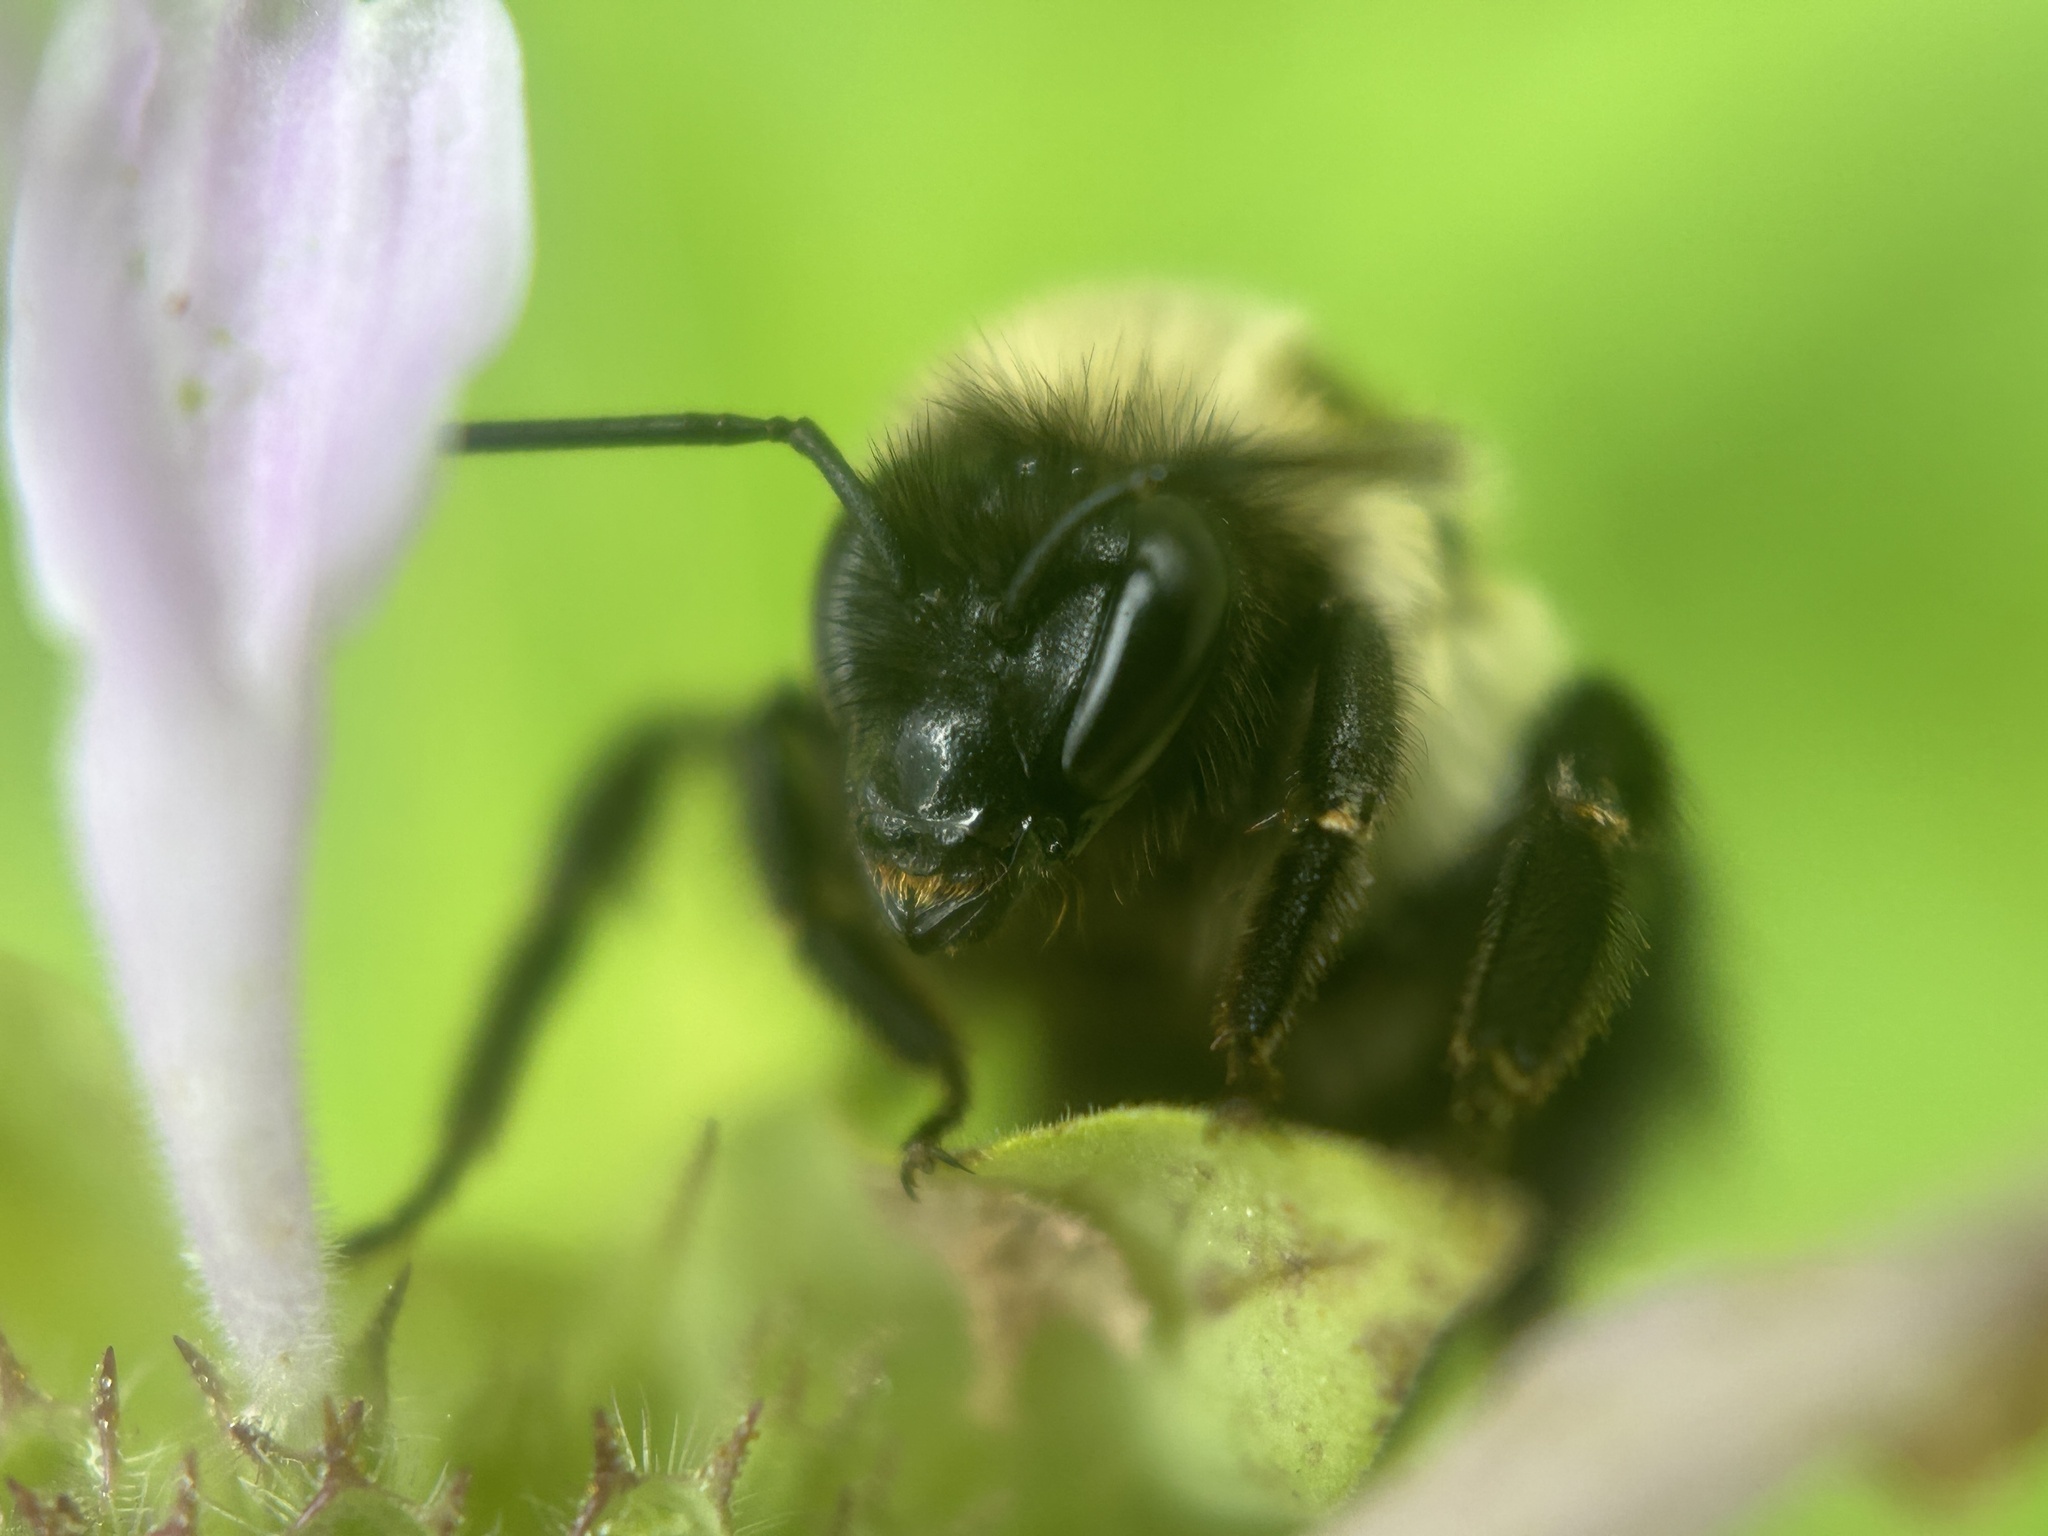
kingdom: Animalia
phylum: Arthropoda
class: Insecta
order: Hymenoptera
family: Apidae
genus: Bombus
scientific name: Bombus impatiens
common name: Common eastern bumble bee
